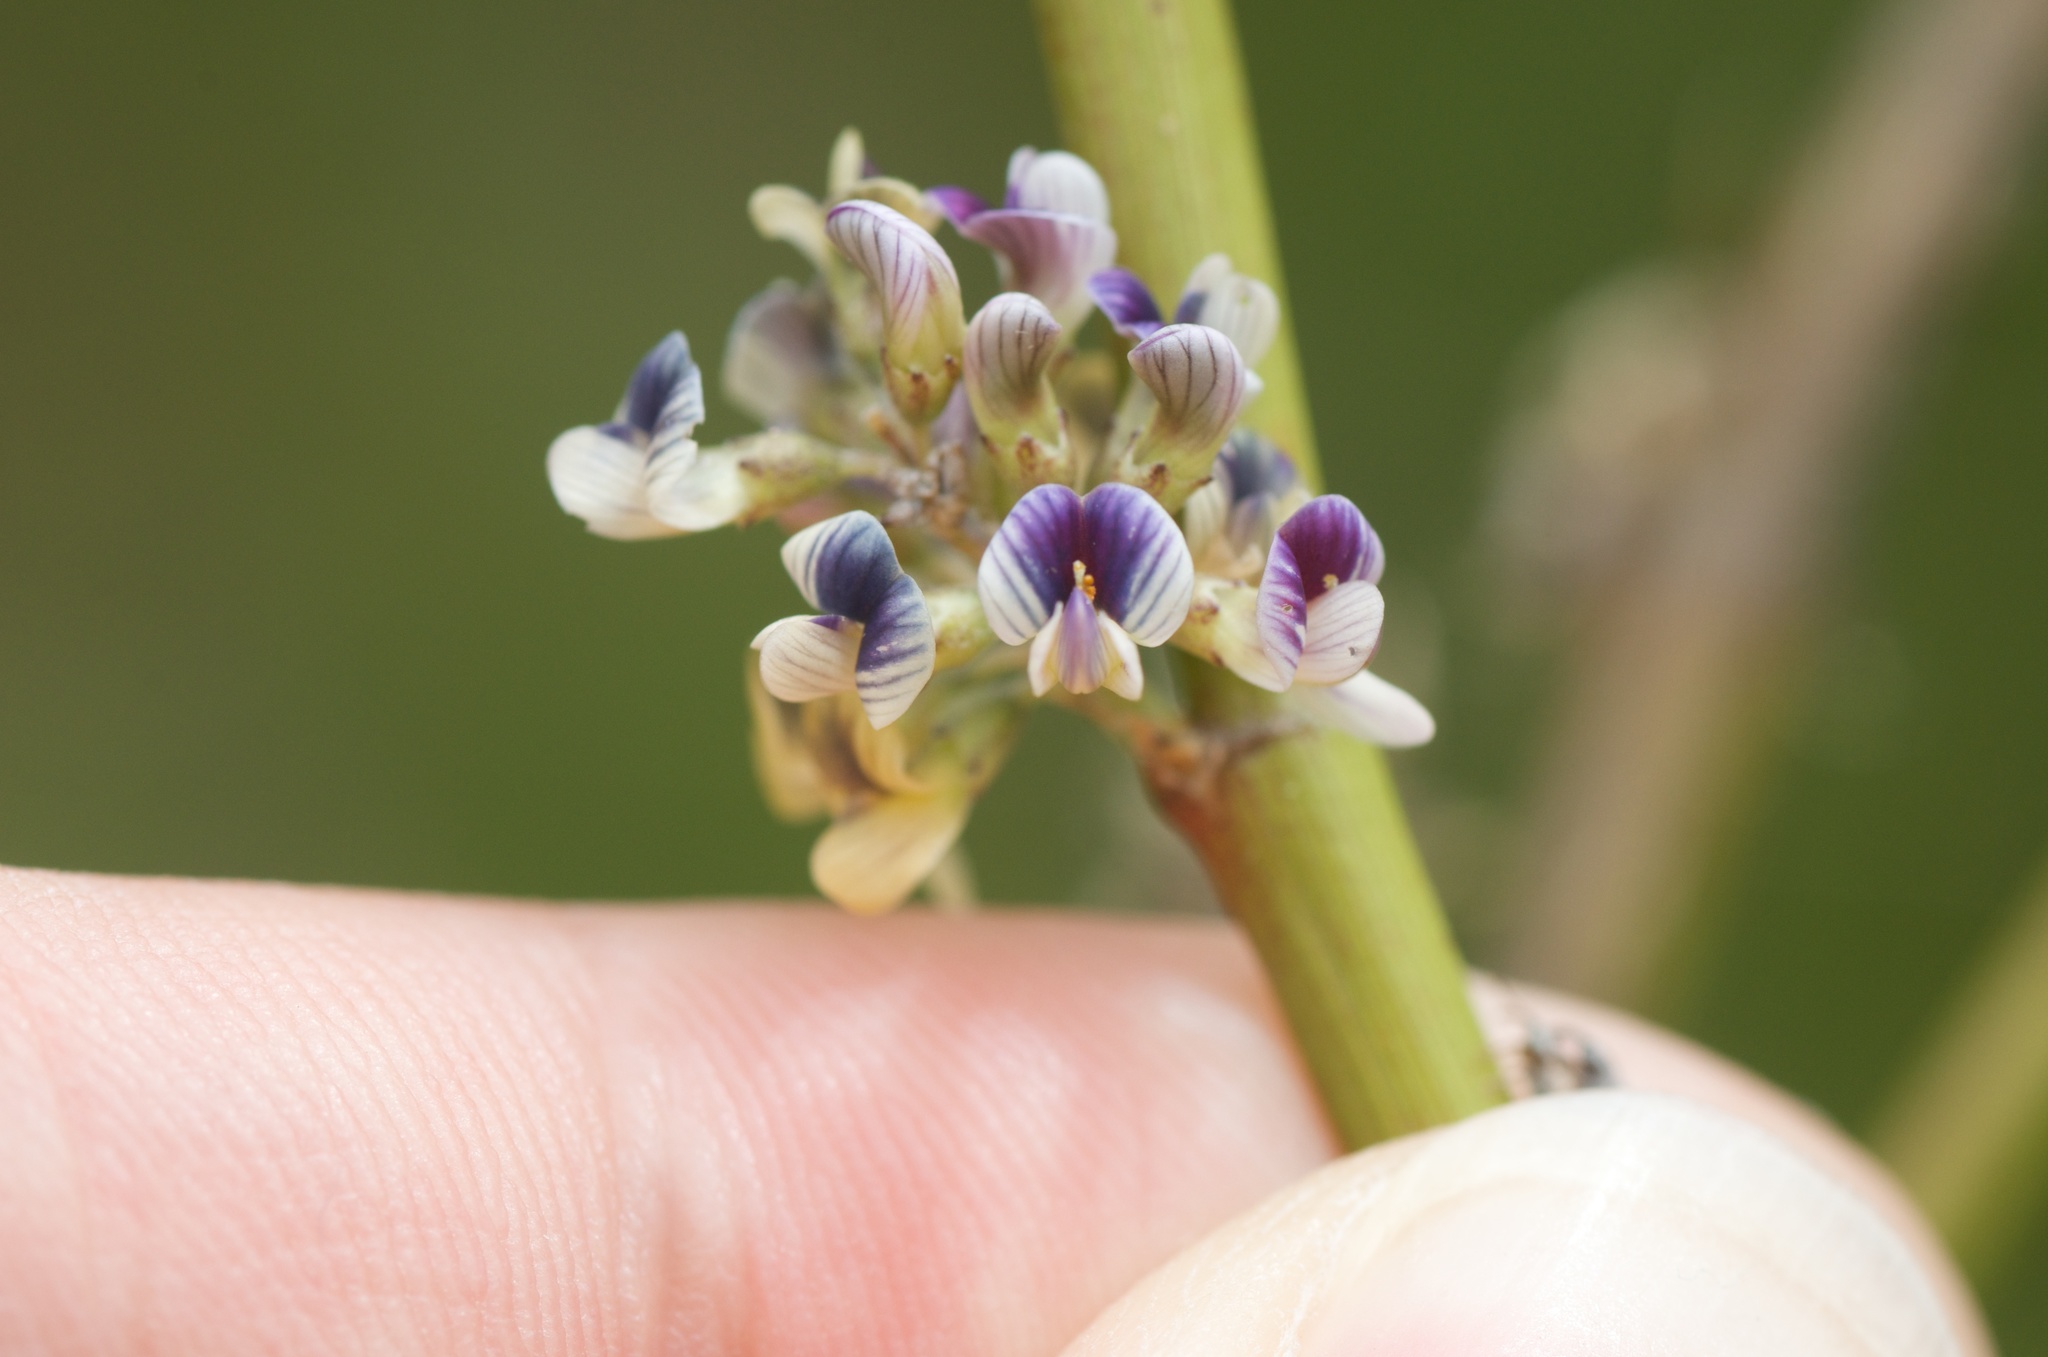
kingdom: Plantae
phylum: Tracheophyta
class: Magnoliopsida
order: Fabales
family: Fabaceae
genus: Carmichaelia
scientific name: Carmichaelia australis
